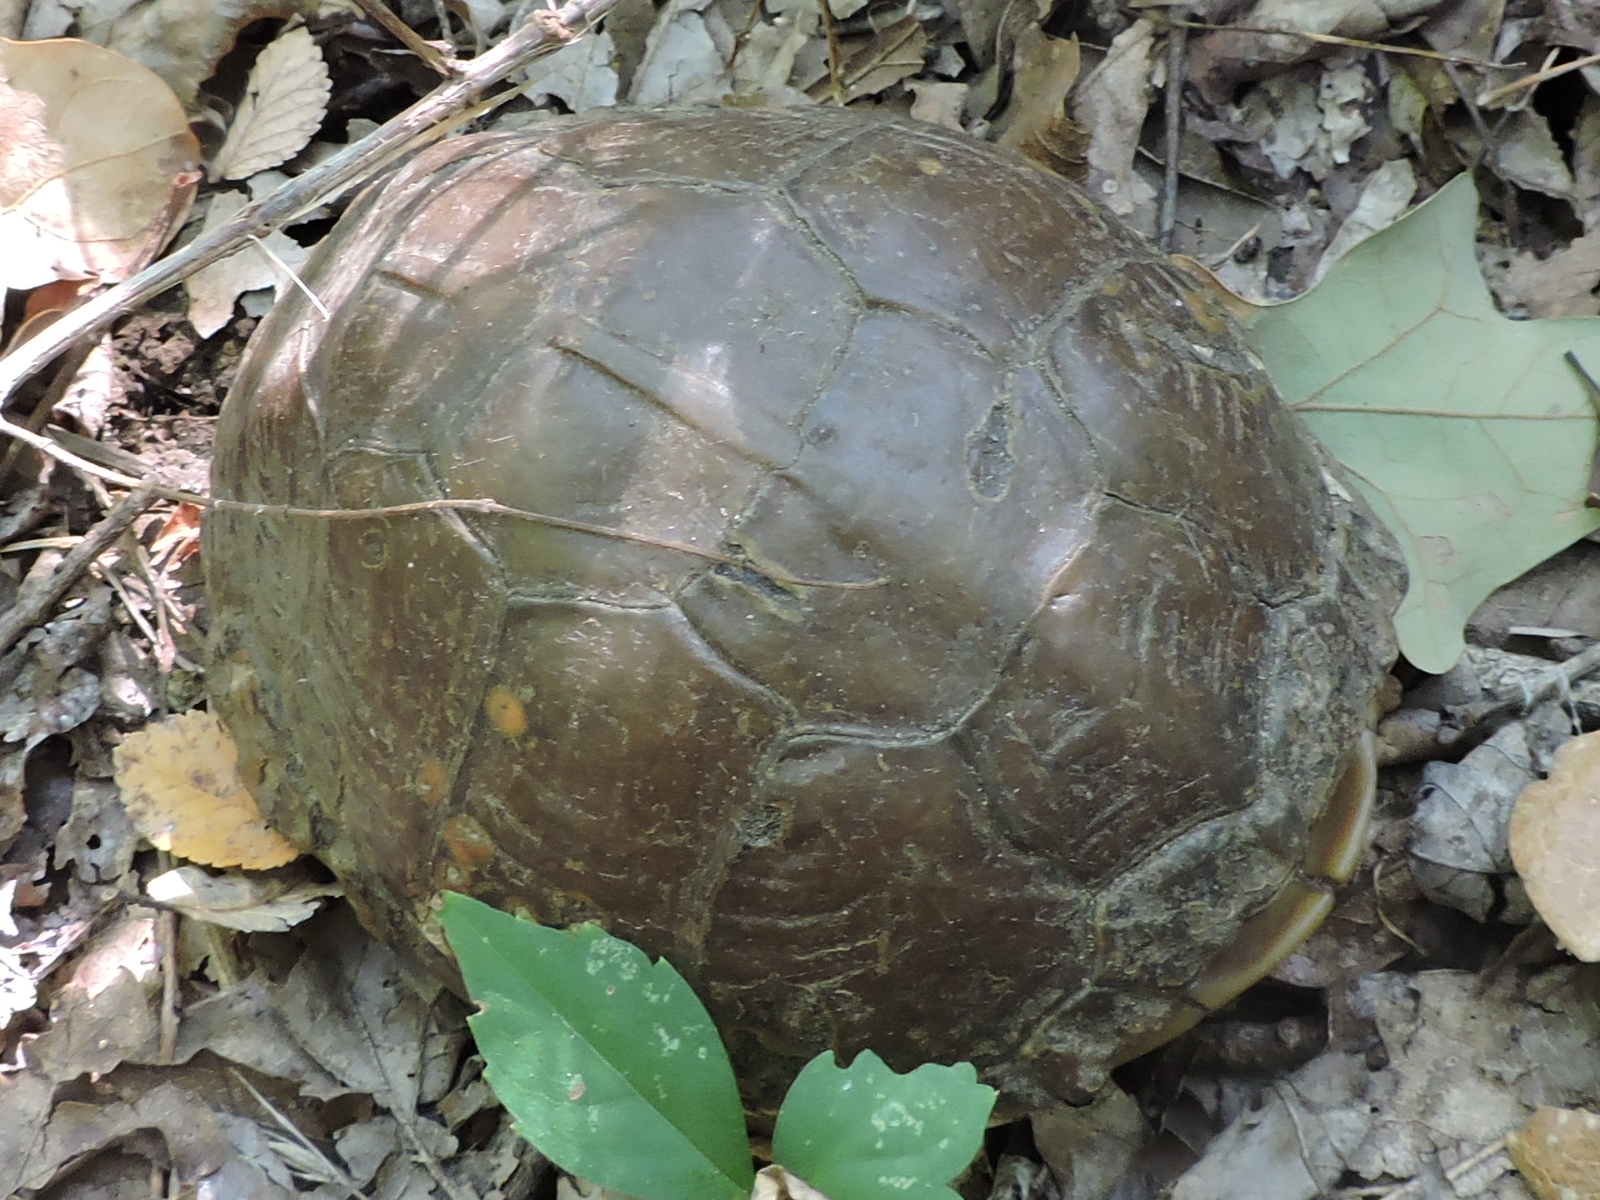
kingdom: Animalia
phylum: Chordata
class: Testudines
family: Emydidae
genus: Terrapene
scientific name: Terrapene carolina
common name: Common box turtle
